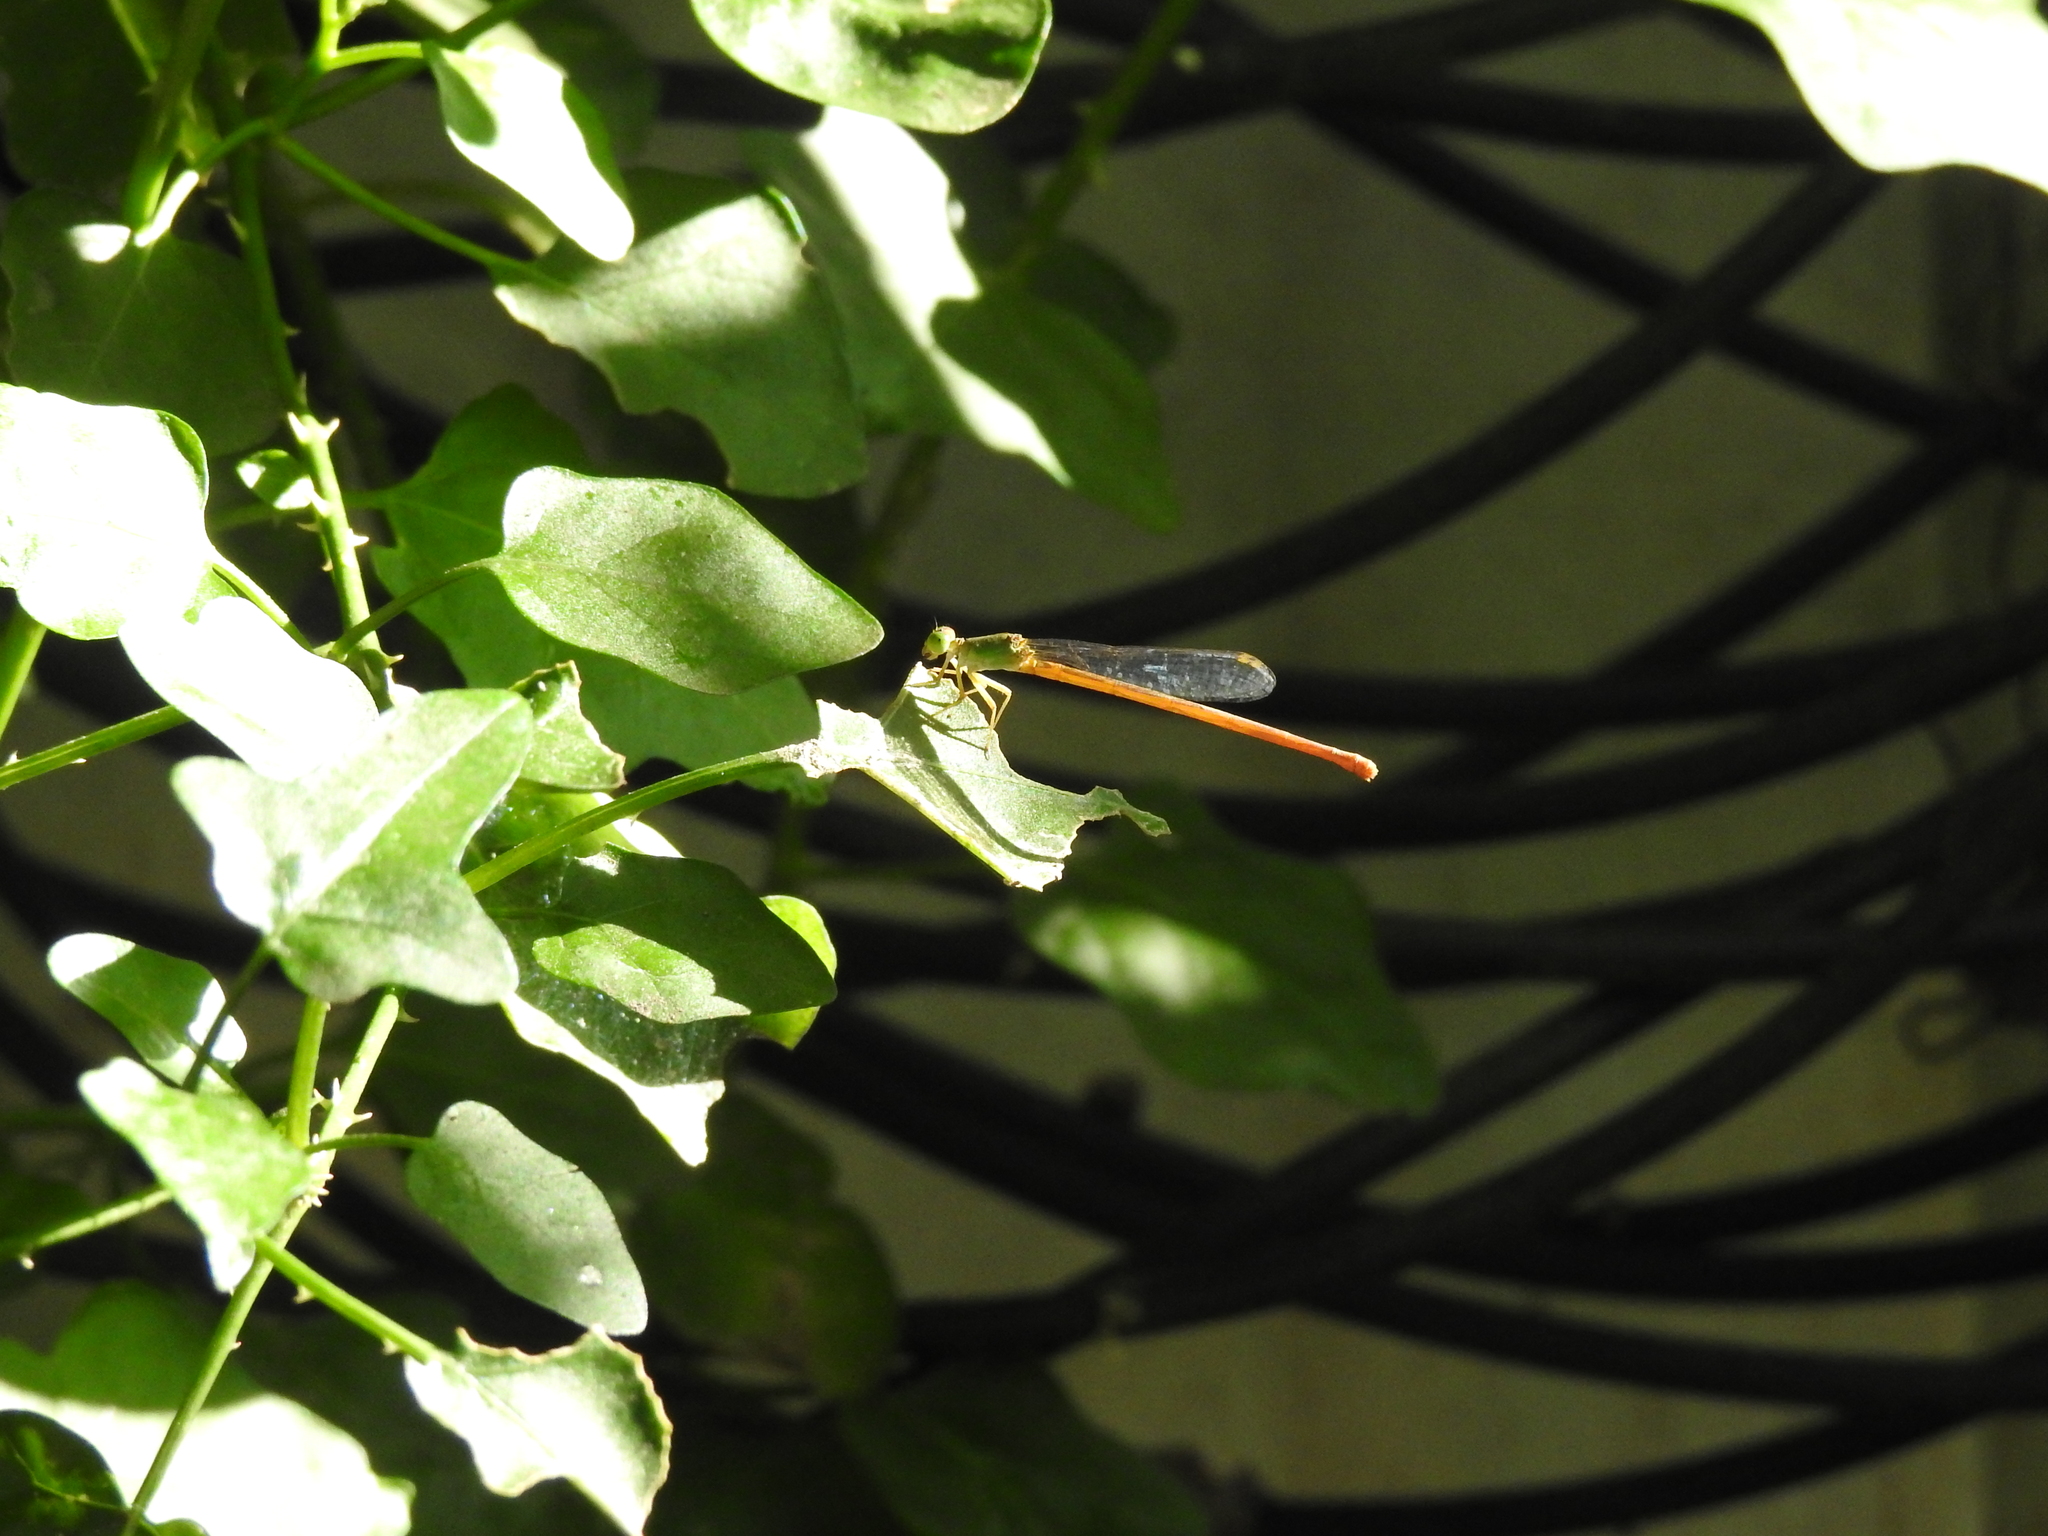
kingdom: Animalia
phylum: Arthropoda
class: Insecta
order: Odonata
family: Coenagrionidae
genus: Ceriagrion
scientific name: Ceriagrion coromandelianum
